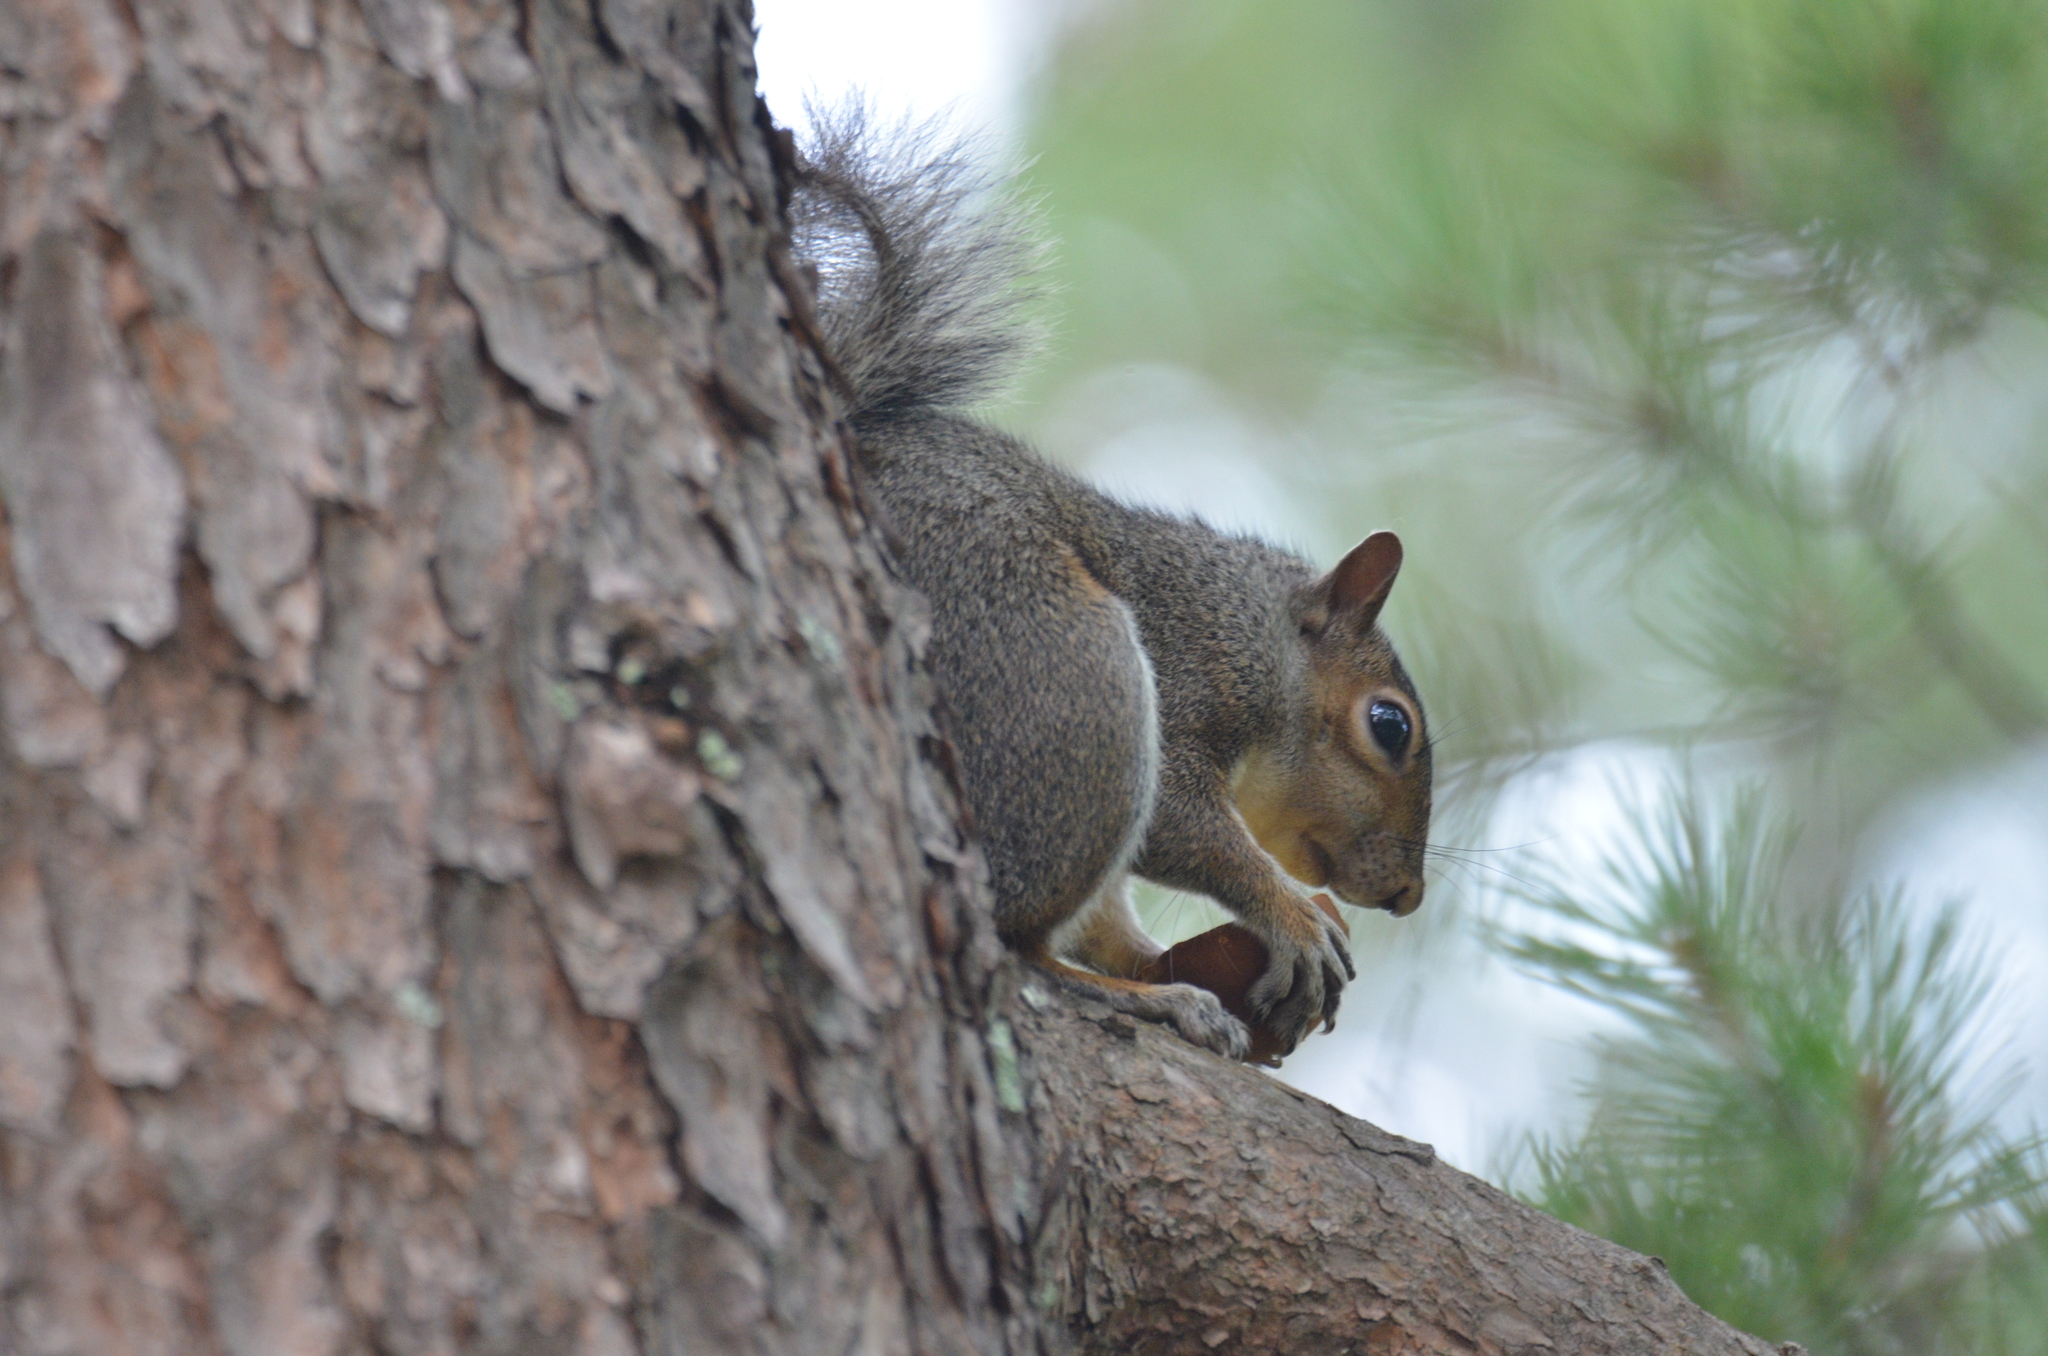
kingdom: Animalia
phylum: Chordata
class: Mammalia
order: Rodentia
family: Sciuridae
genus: Sciurus
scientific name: Sciurus carolinensis
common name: Eastern gray squirrel
